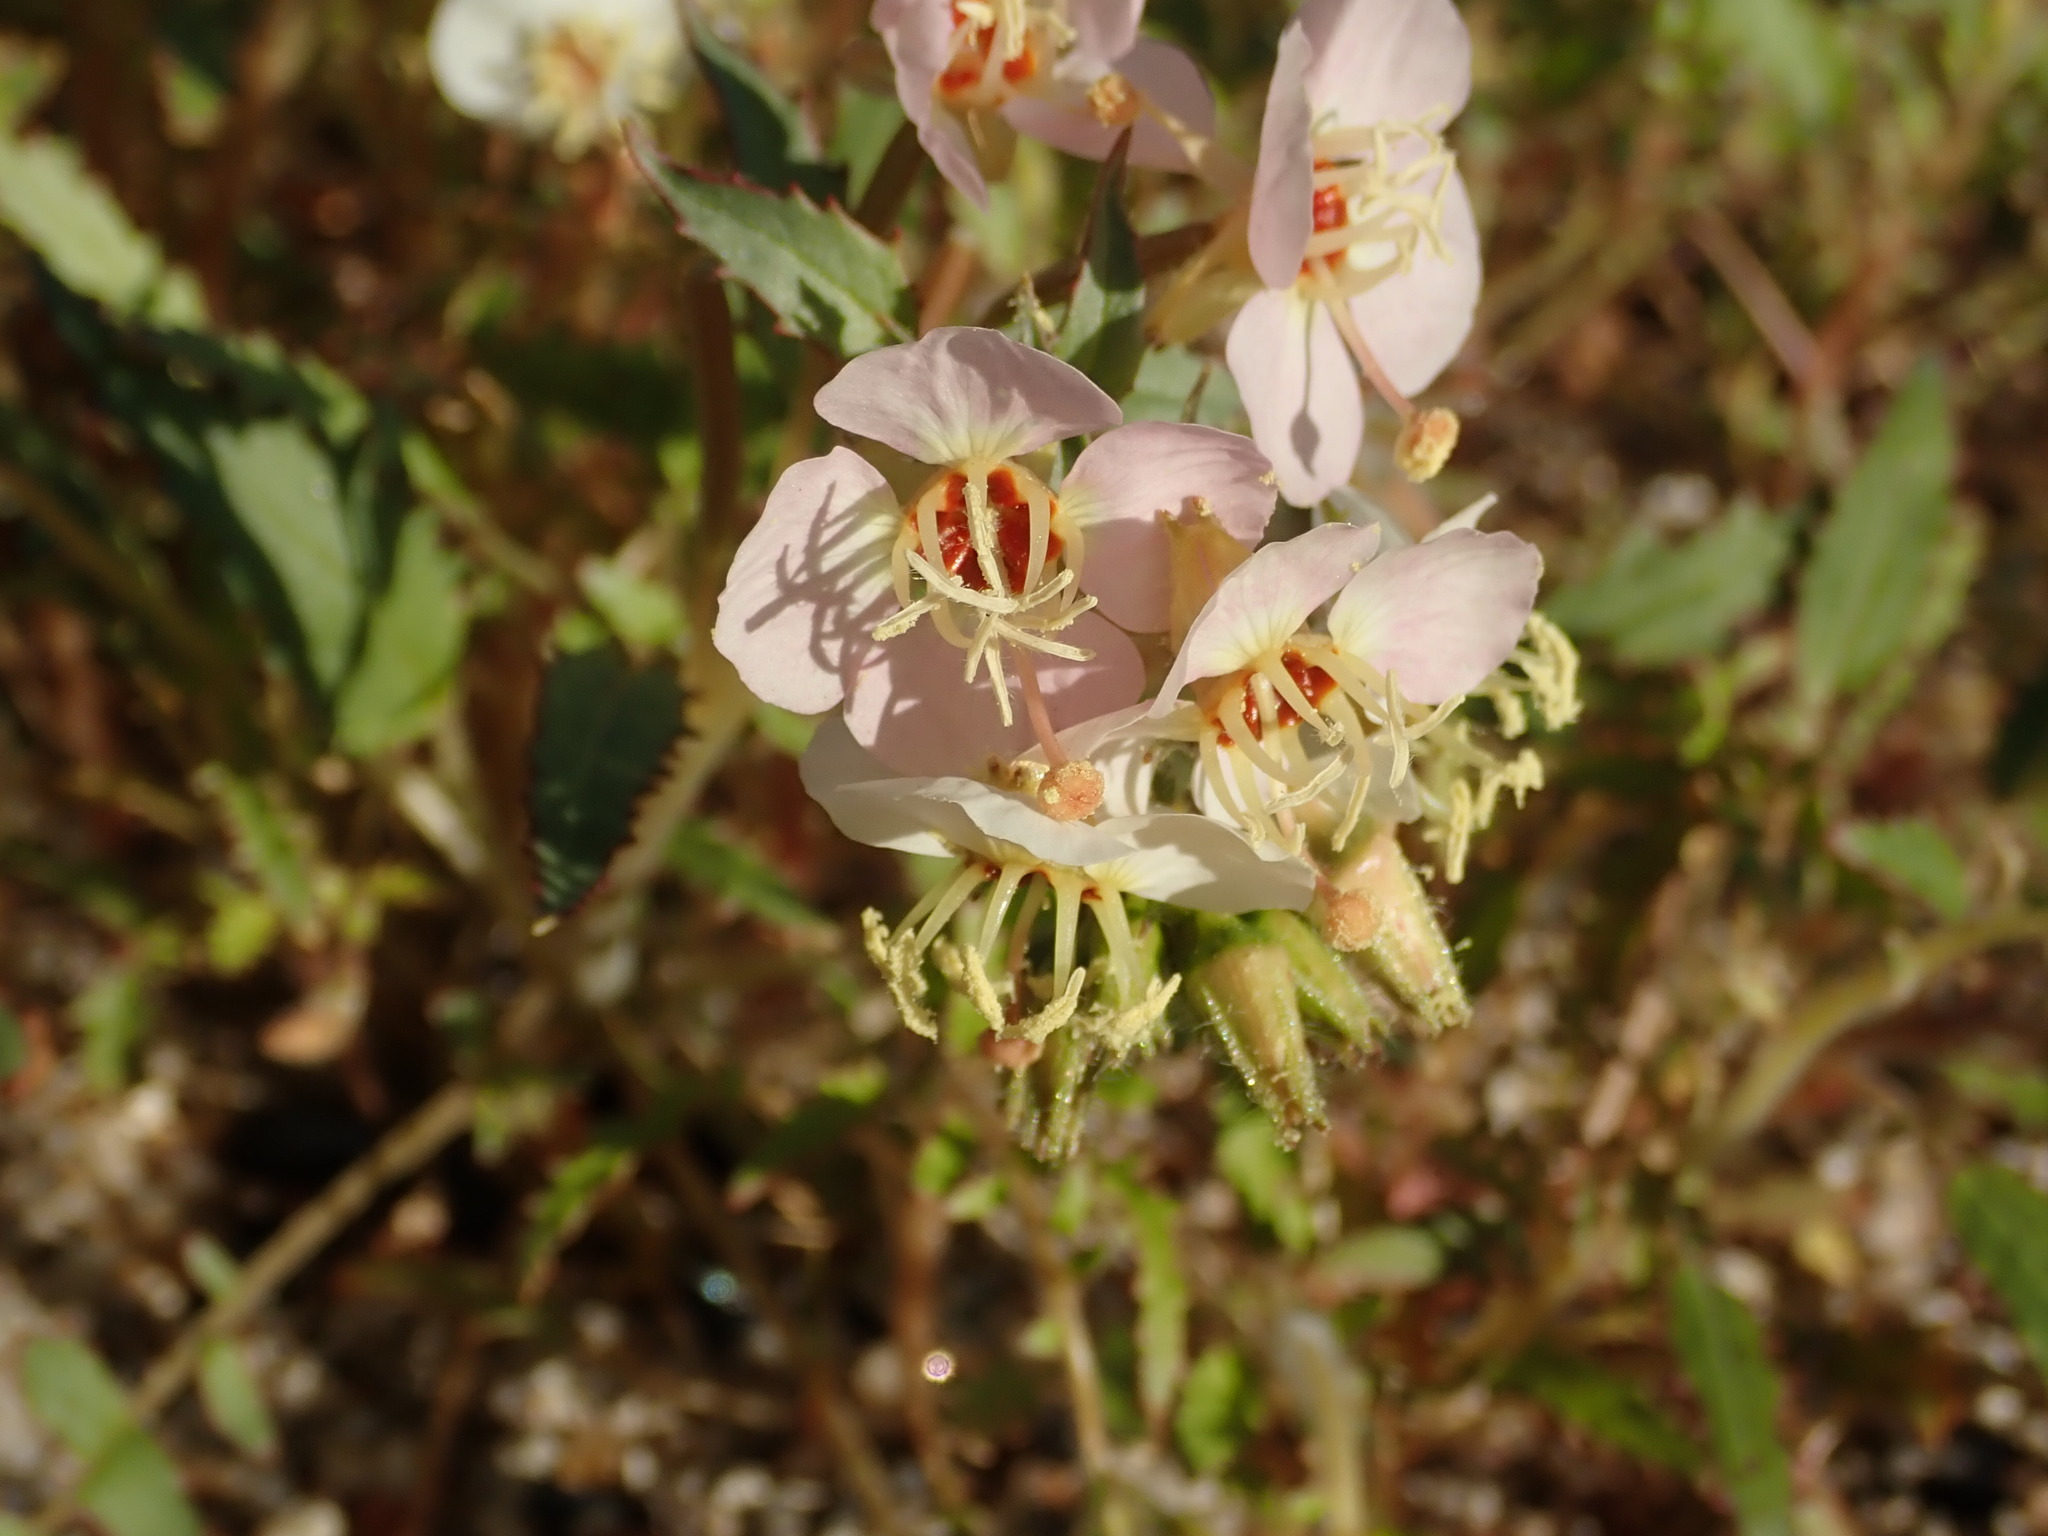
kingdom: Plantae
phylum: Tracheophyta
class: Magnoliopsida
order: Myrtales
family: Onagraceae
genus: Chylismia
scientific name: Chylismia claviformis
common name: Browneyes
